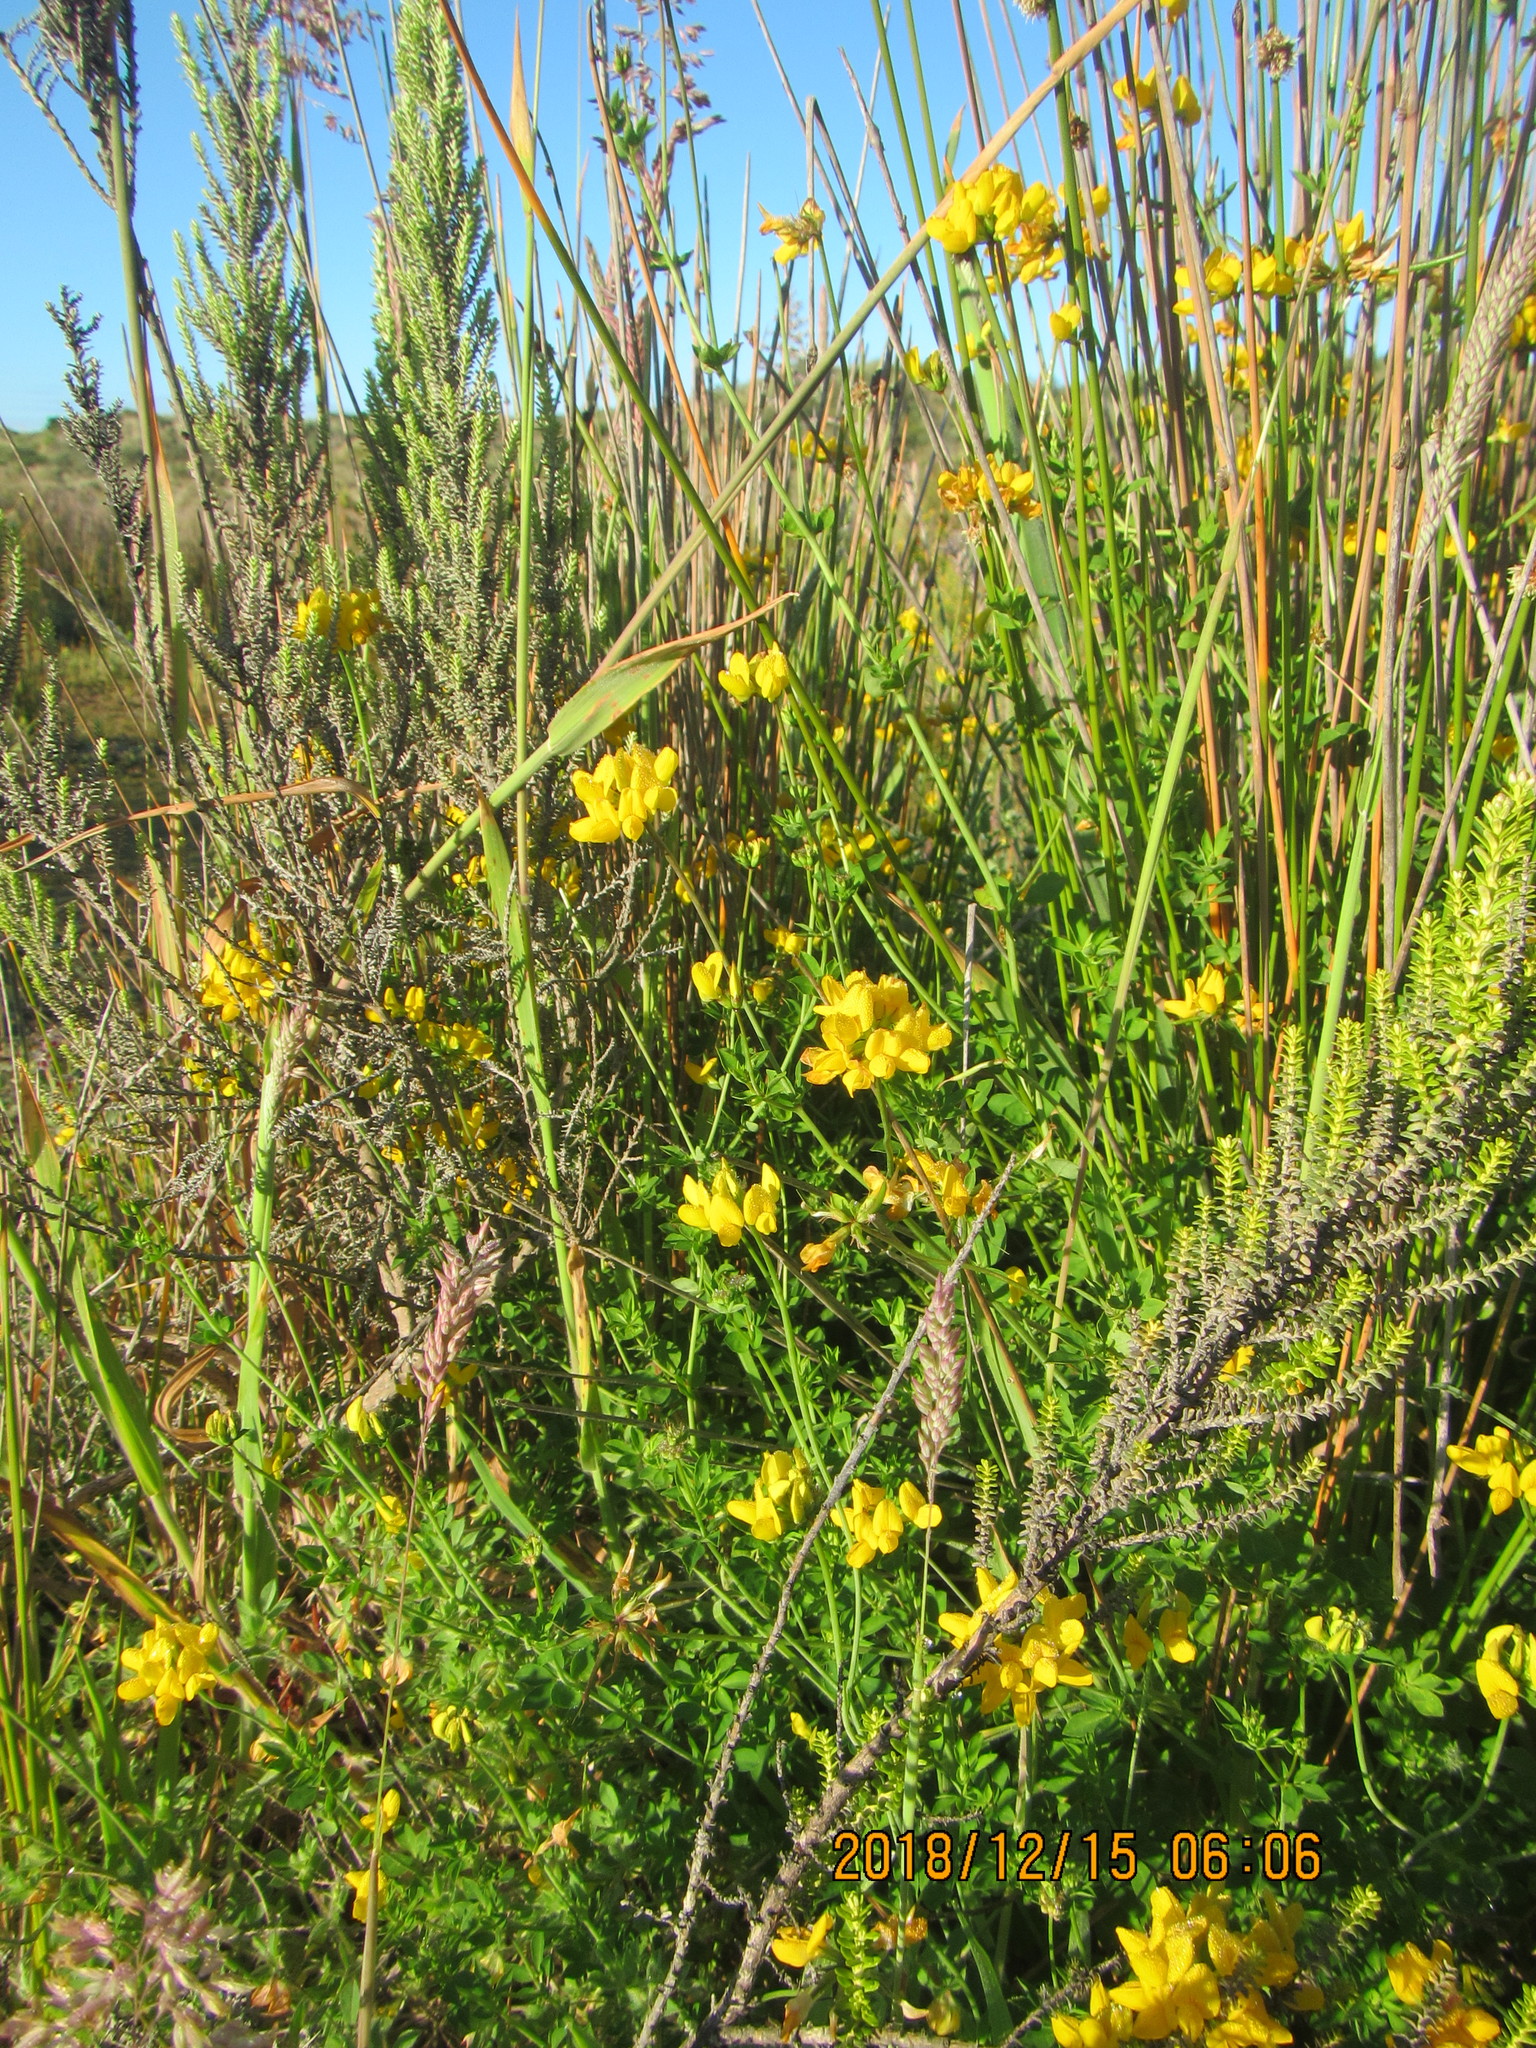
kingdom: Plantae
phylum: Tracheophyta
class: Magnoliopsida
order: Fabales
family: Fabaceae
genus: Lotus
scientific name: Lotus pedunculatus
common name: Greater birdsfoot-trefoil
